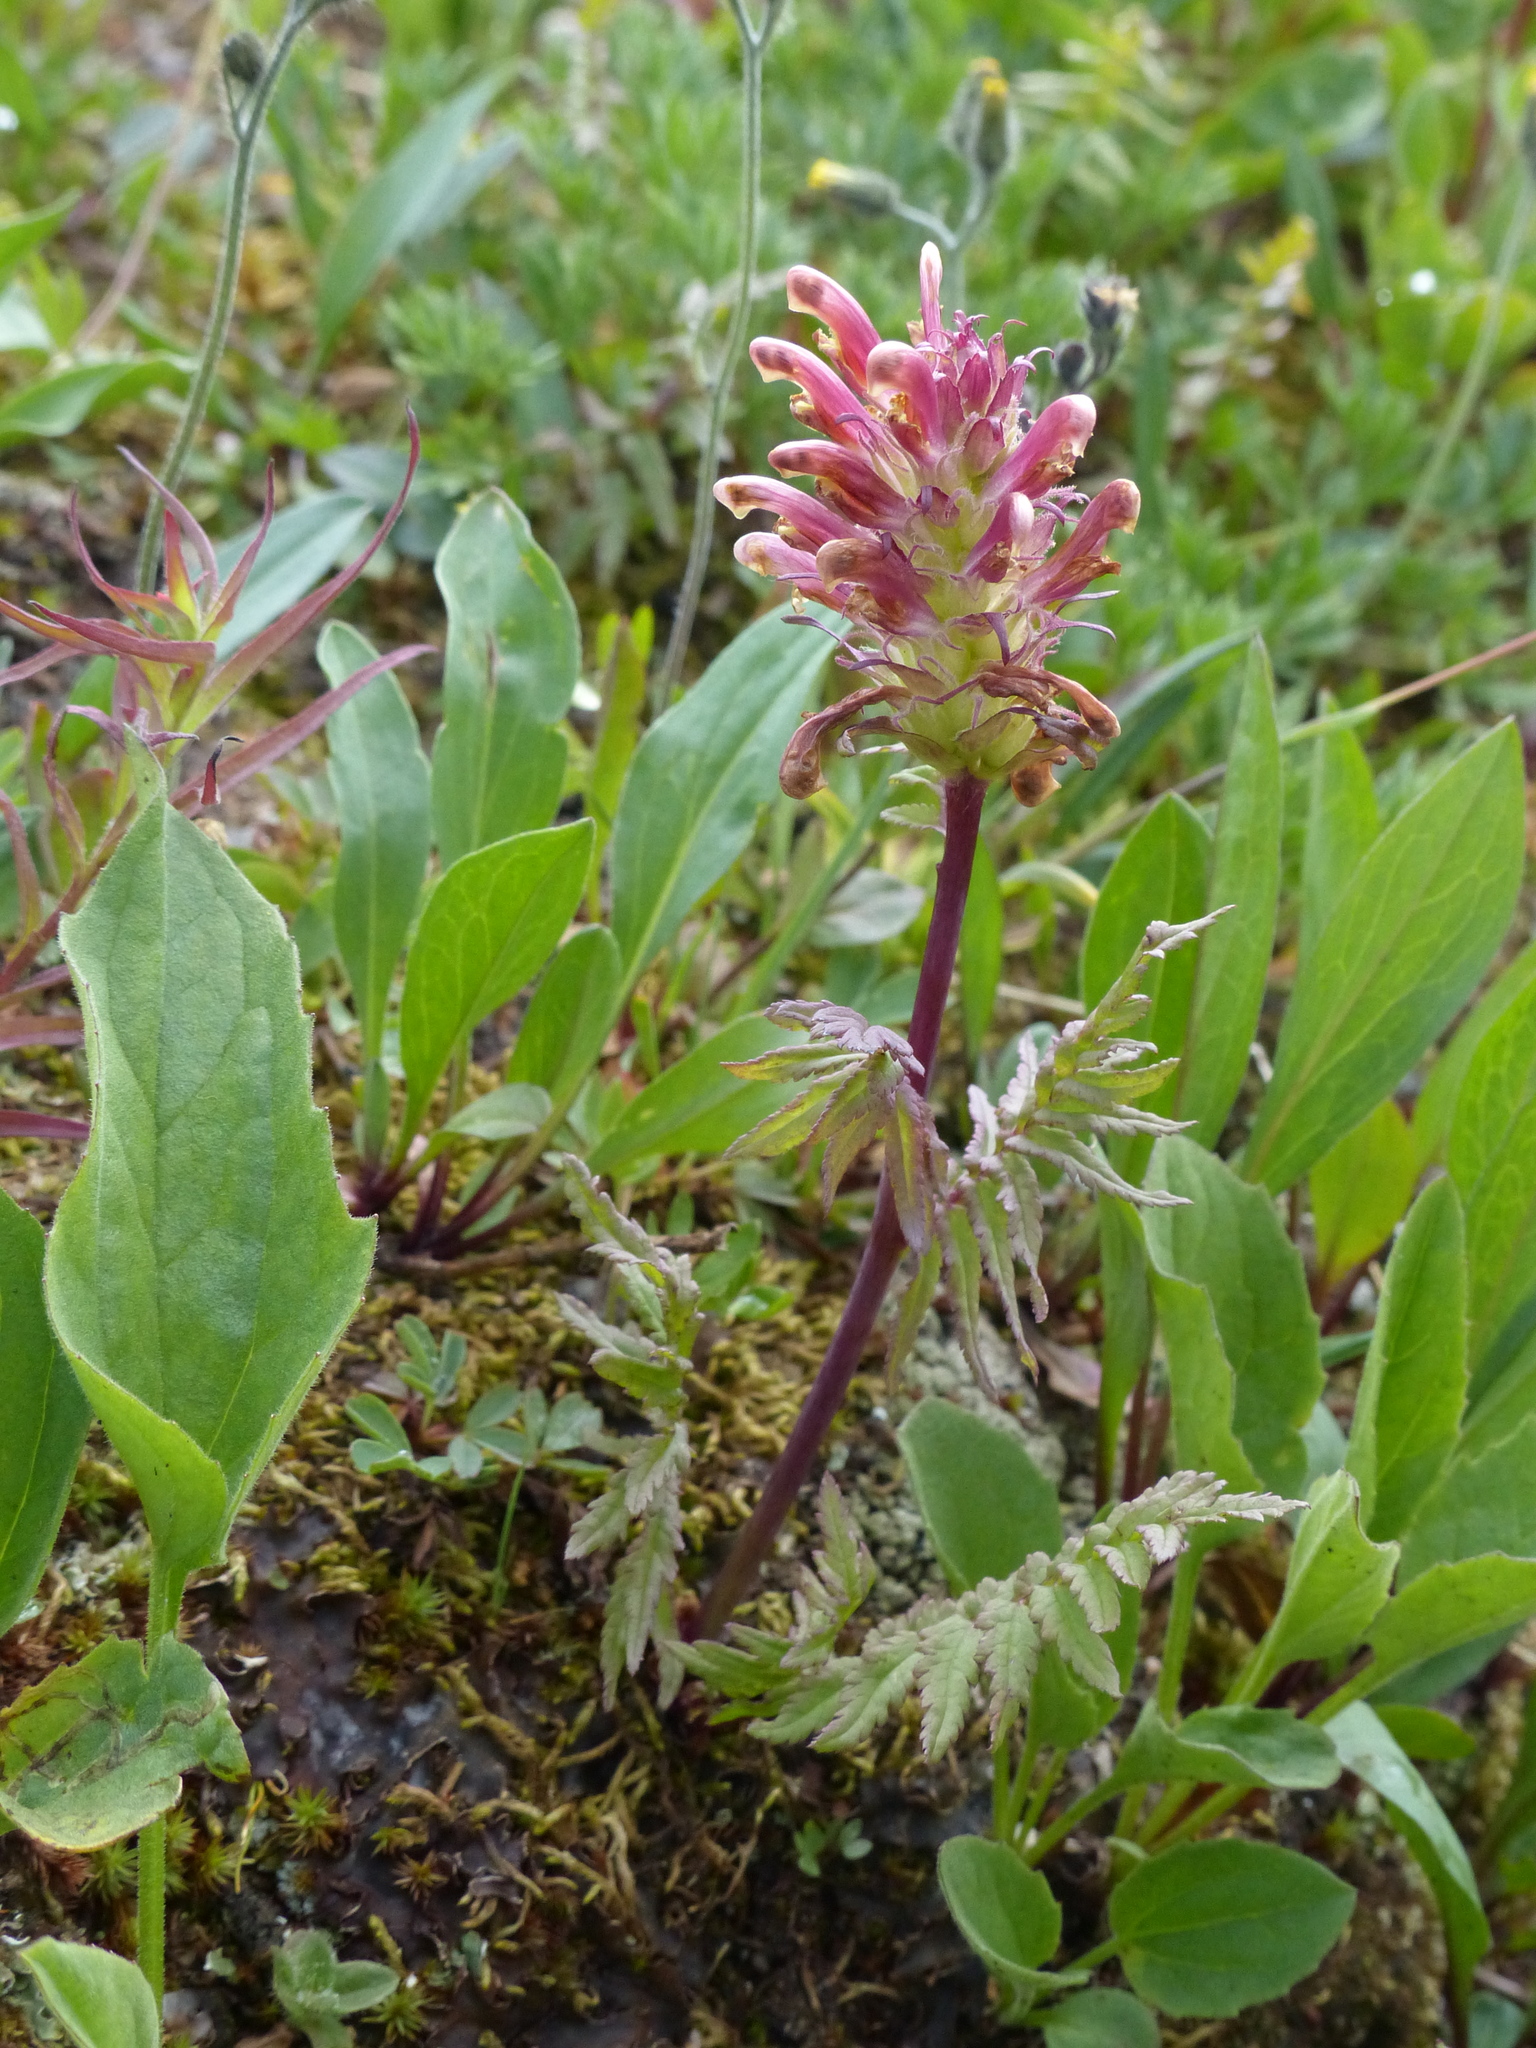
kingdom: Plantae
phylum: Tracheophyta
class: Magnoliopsida
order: Lamiales
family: Orobanchaceae
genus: Pedicularis
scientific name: Pedicularis bracteosa
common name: Bracted lousewort
